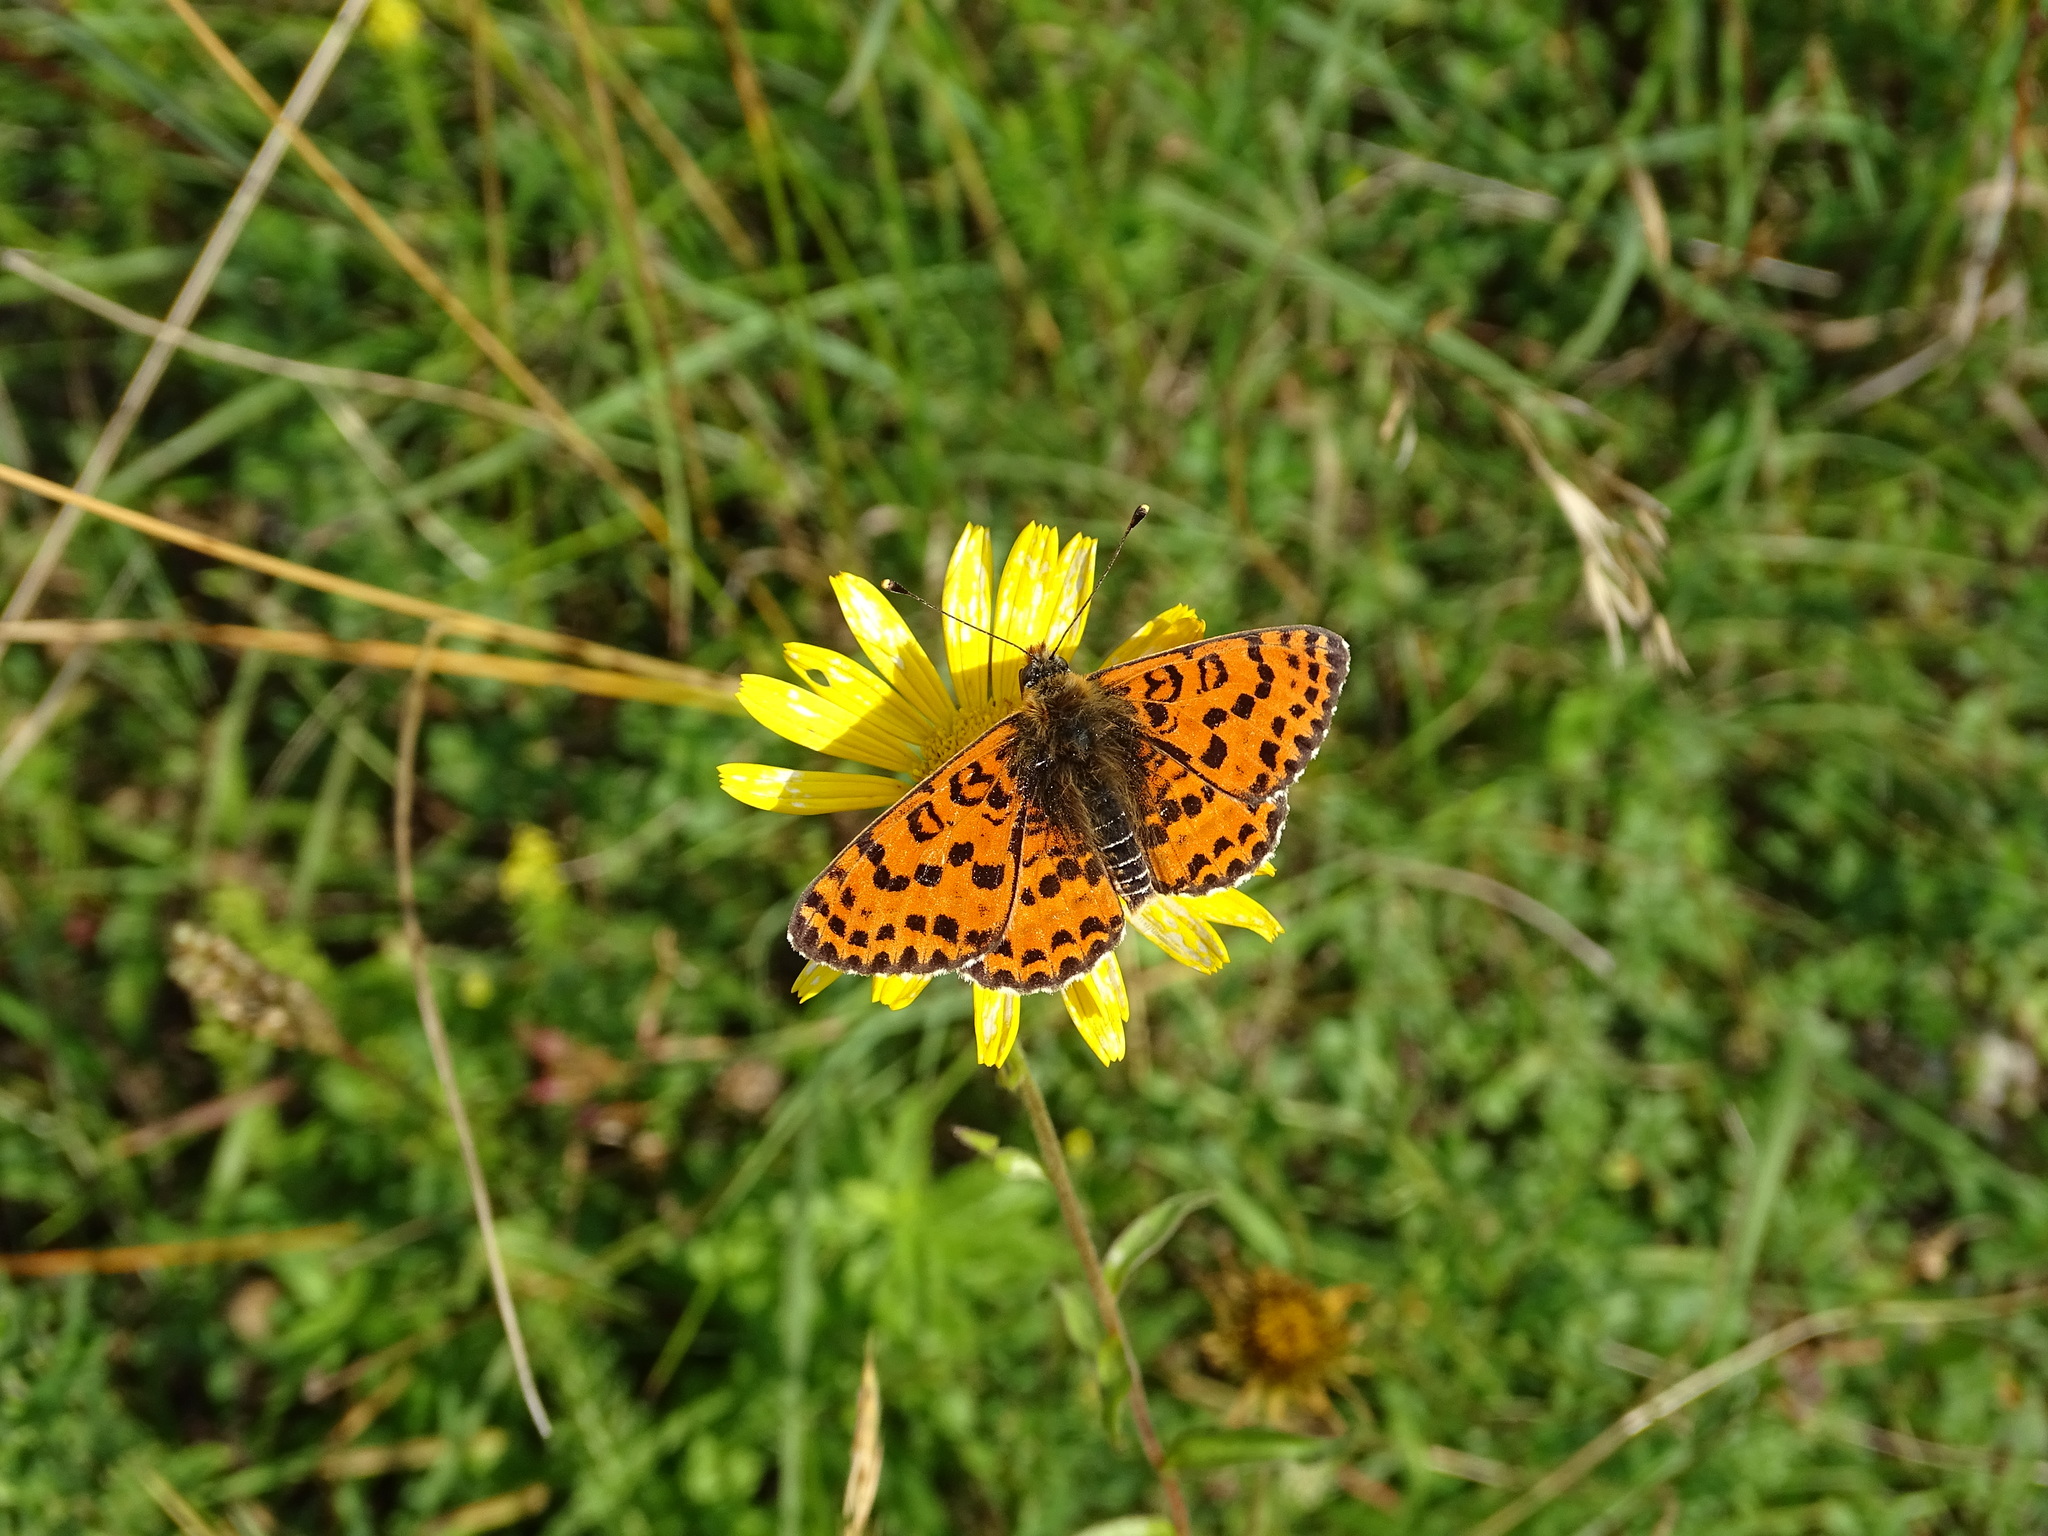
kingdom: Animalia
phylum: Arthropoda
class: Insecta
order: Lepidoptera
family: Nymphalidae
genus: Melitaea
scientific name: Melitaea didyma
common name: Spotted fritillary
